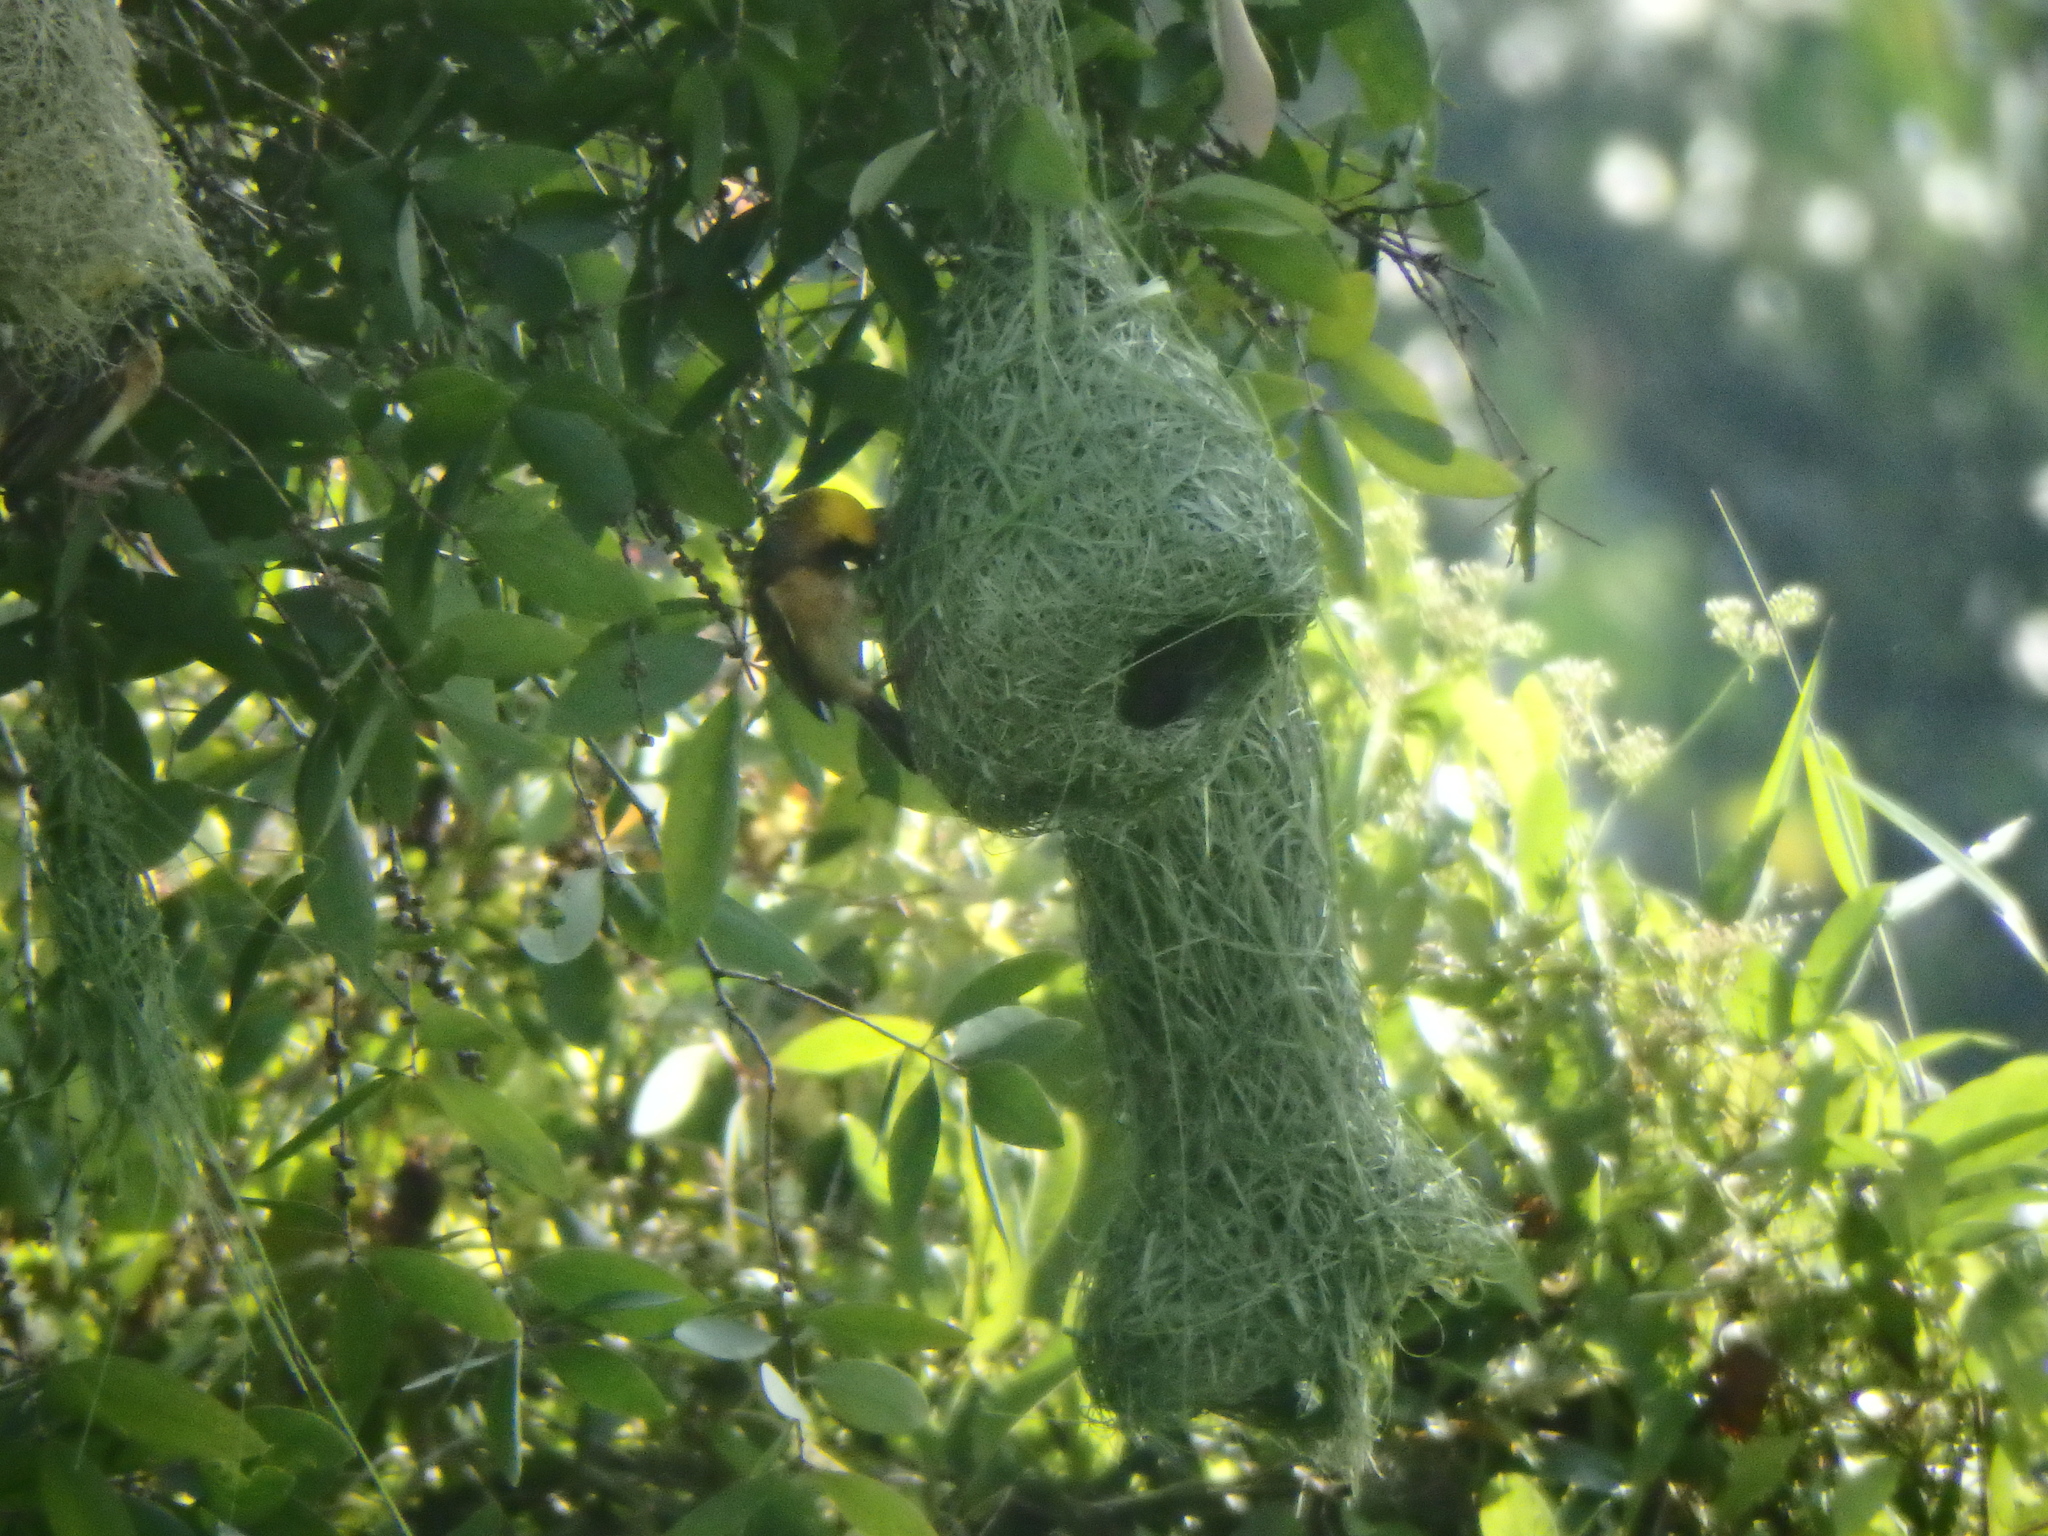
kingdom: Animalia
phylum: Chordata
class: Aves
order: Passeriformes
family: Ploceidae
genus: Ploceus
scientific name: Ploceus philippinus
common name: Baya weaver
